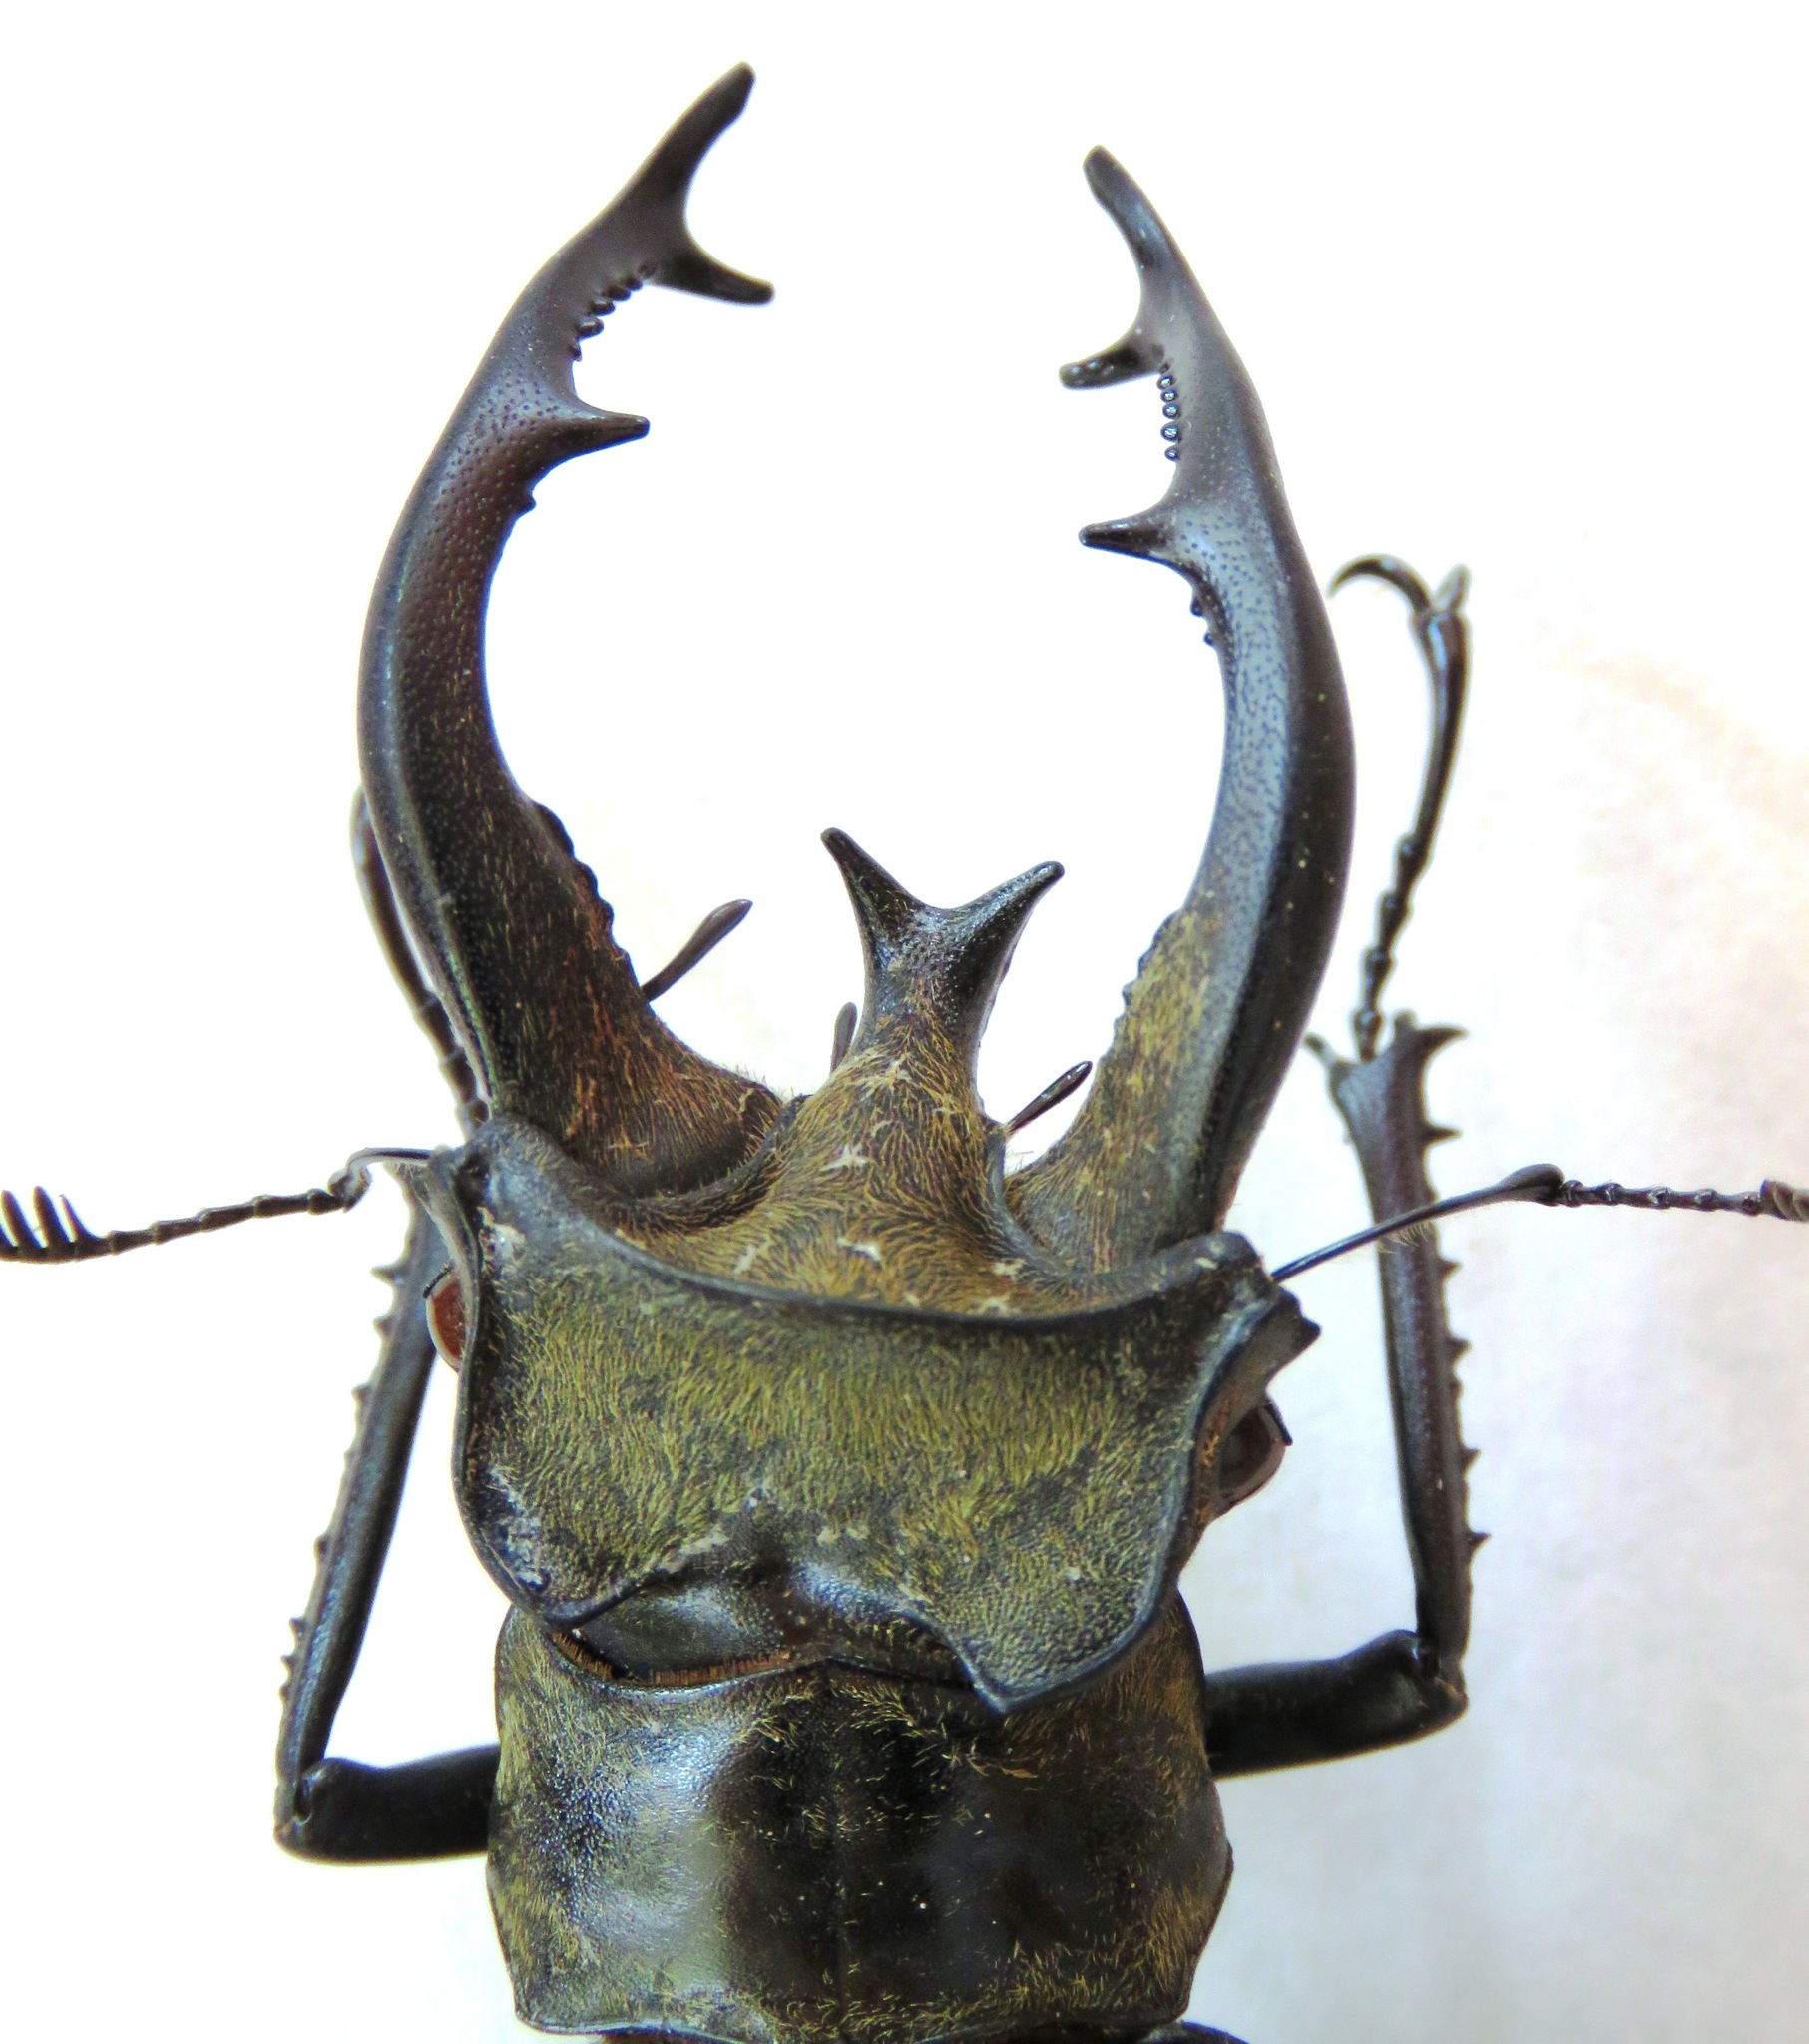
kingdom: Animalia
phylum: Arthropoda
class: Insecta
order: Coleoptera
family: Lucanidae
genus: Lucanus
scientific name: Lucanus thibetanus
